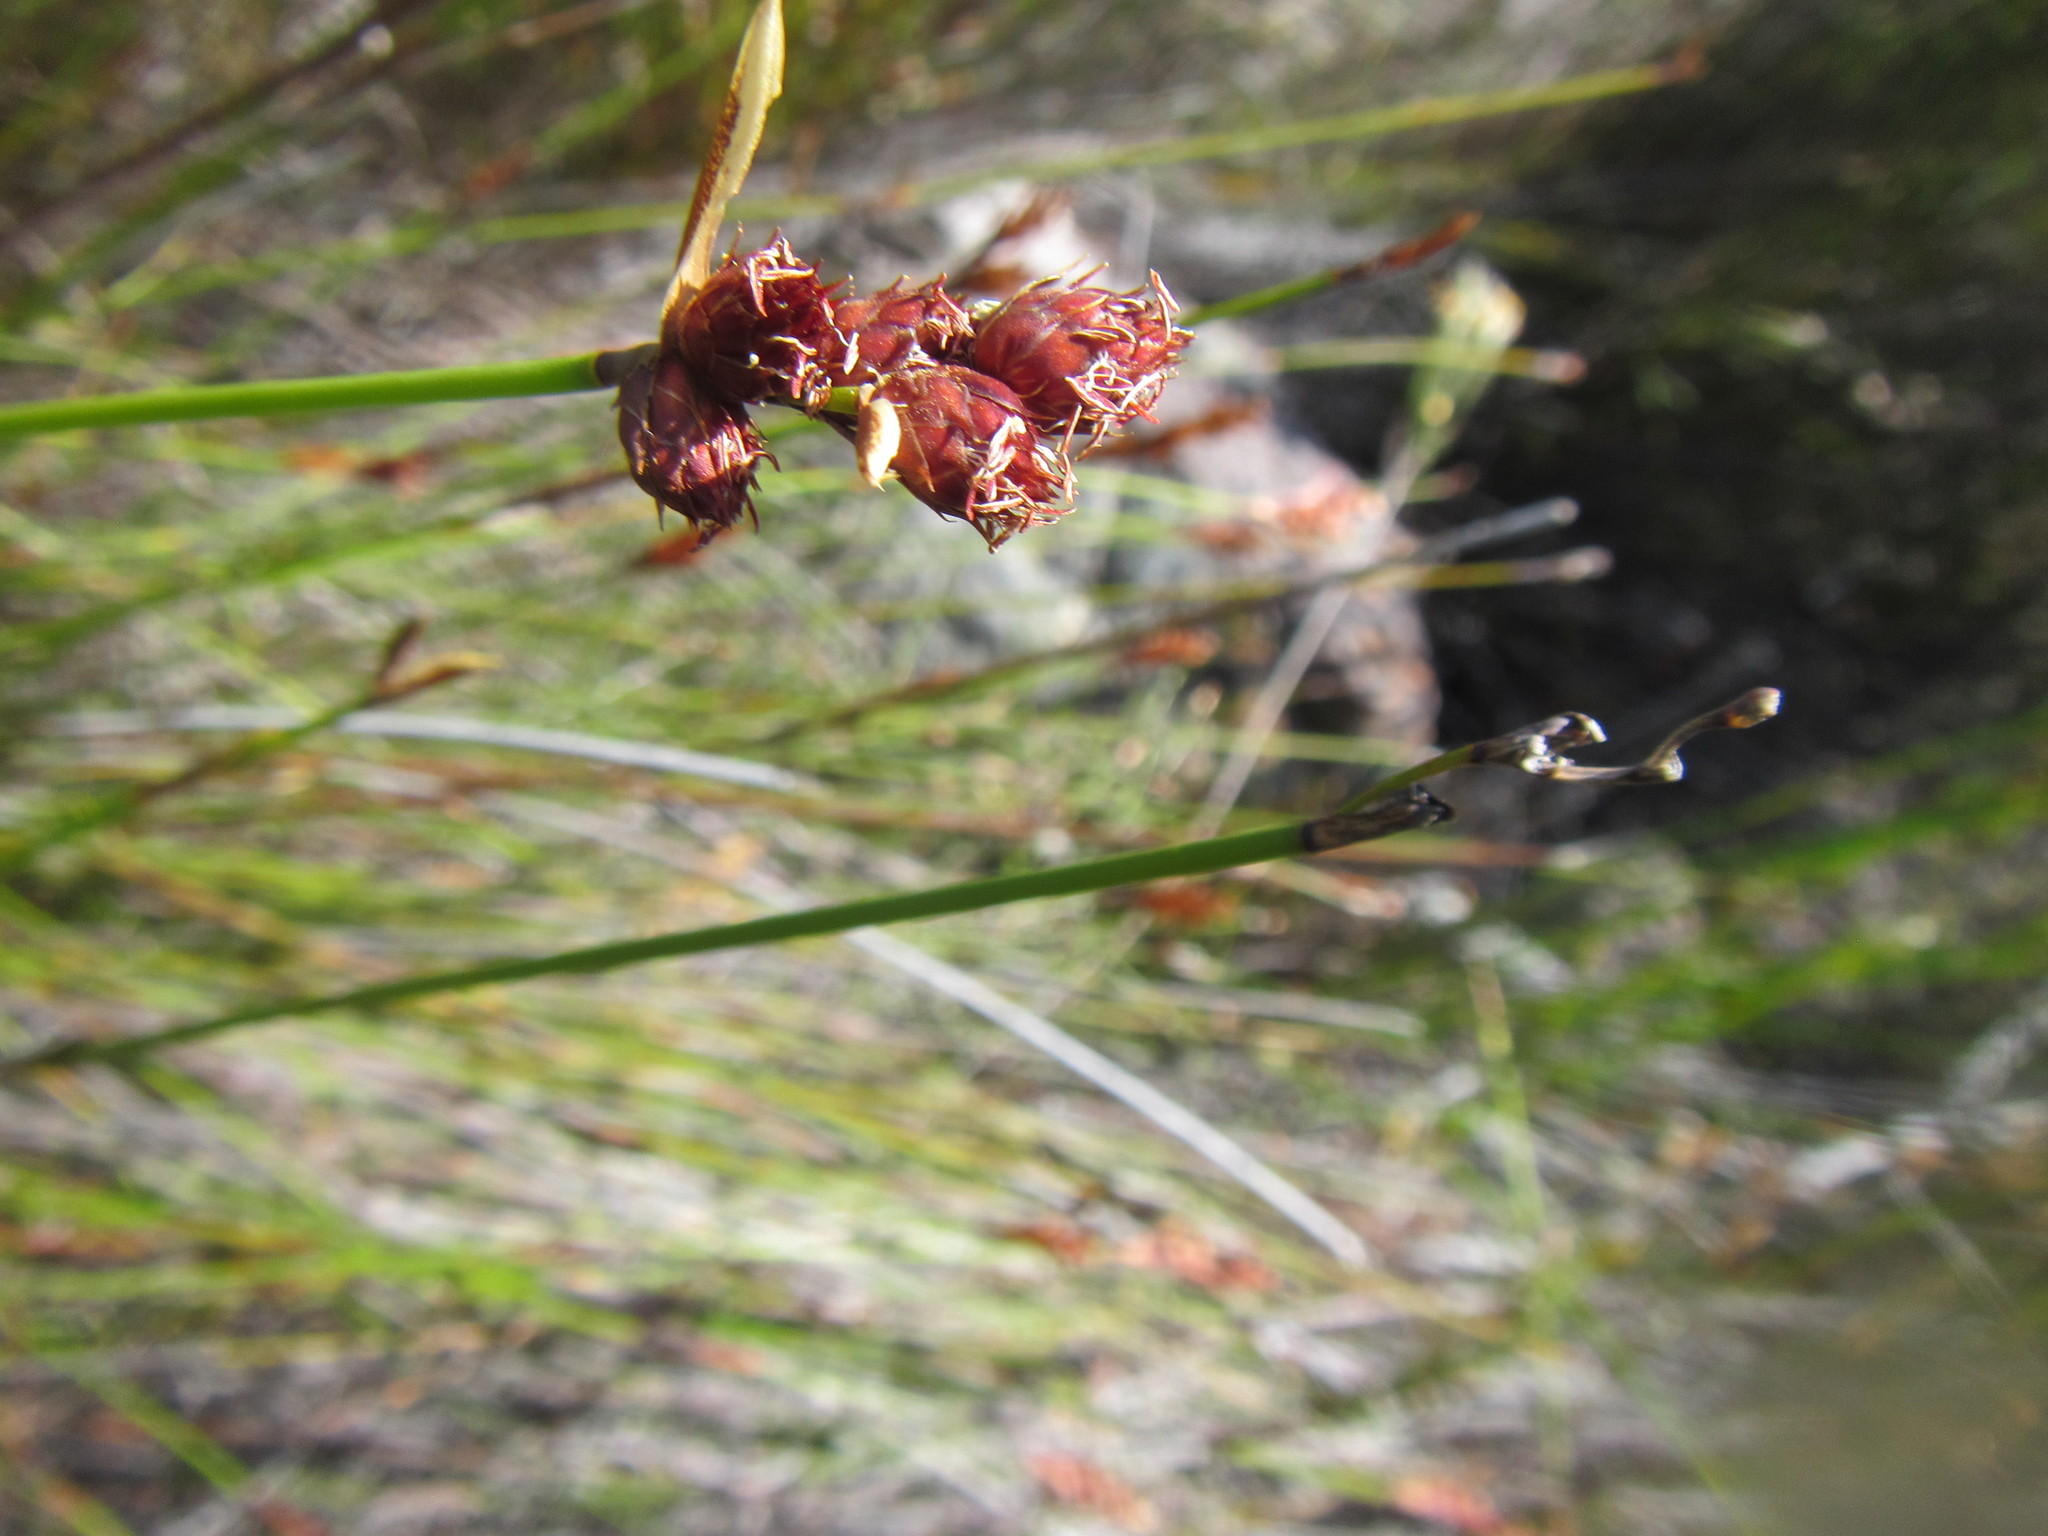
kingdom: Plantae
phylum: Tracheophyta
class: Liliopsida
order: Poales
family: Restionaceae
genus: Hypodiscus
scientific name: Hypodiscus alternans
